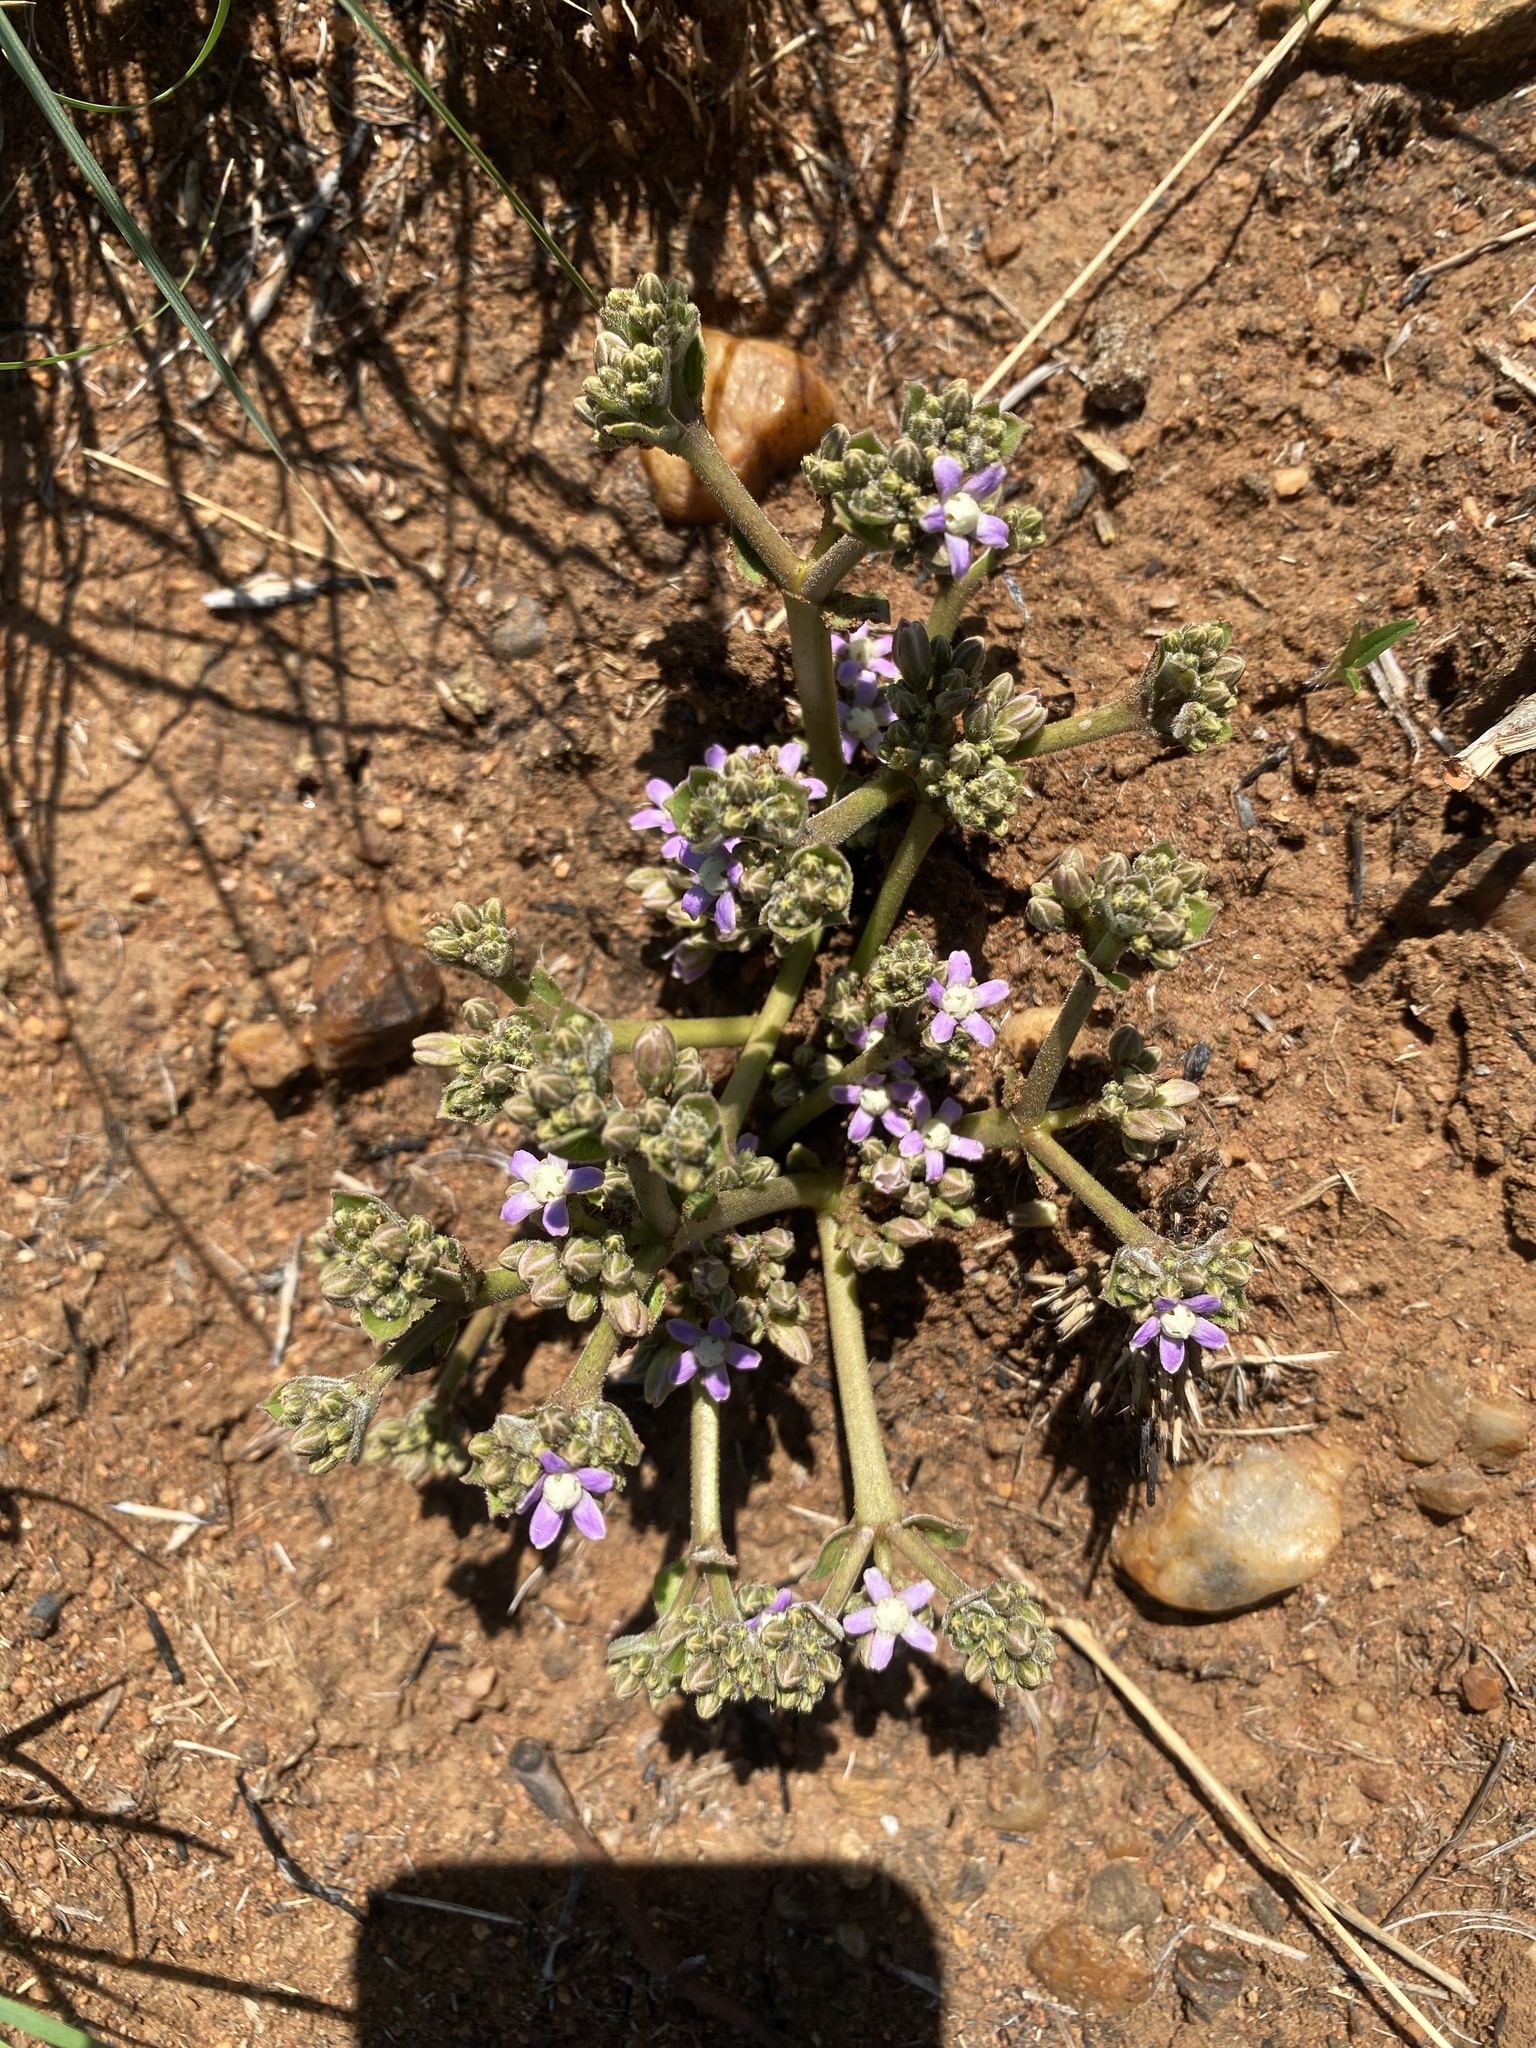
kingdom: Plantae
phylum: Tracheophyta
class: Magnoliopsida
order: Gentianales
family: Apocynaceae
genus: Raphionacme
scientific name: Raphionacme hirsuta
